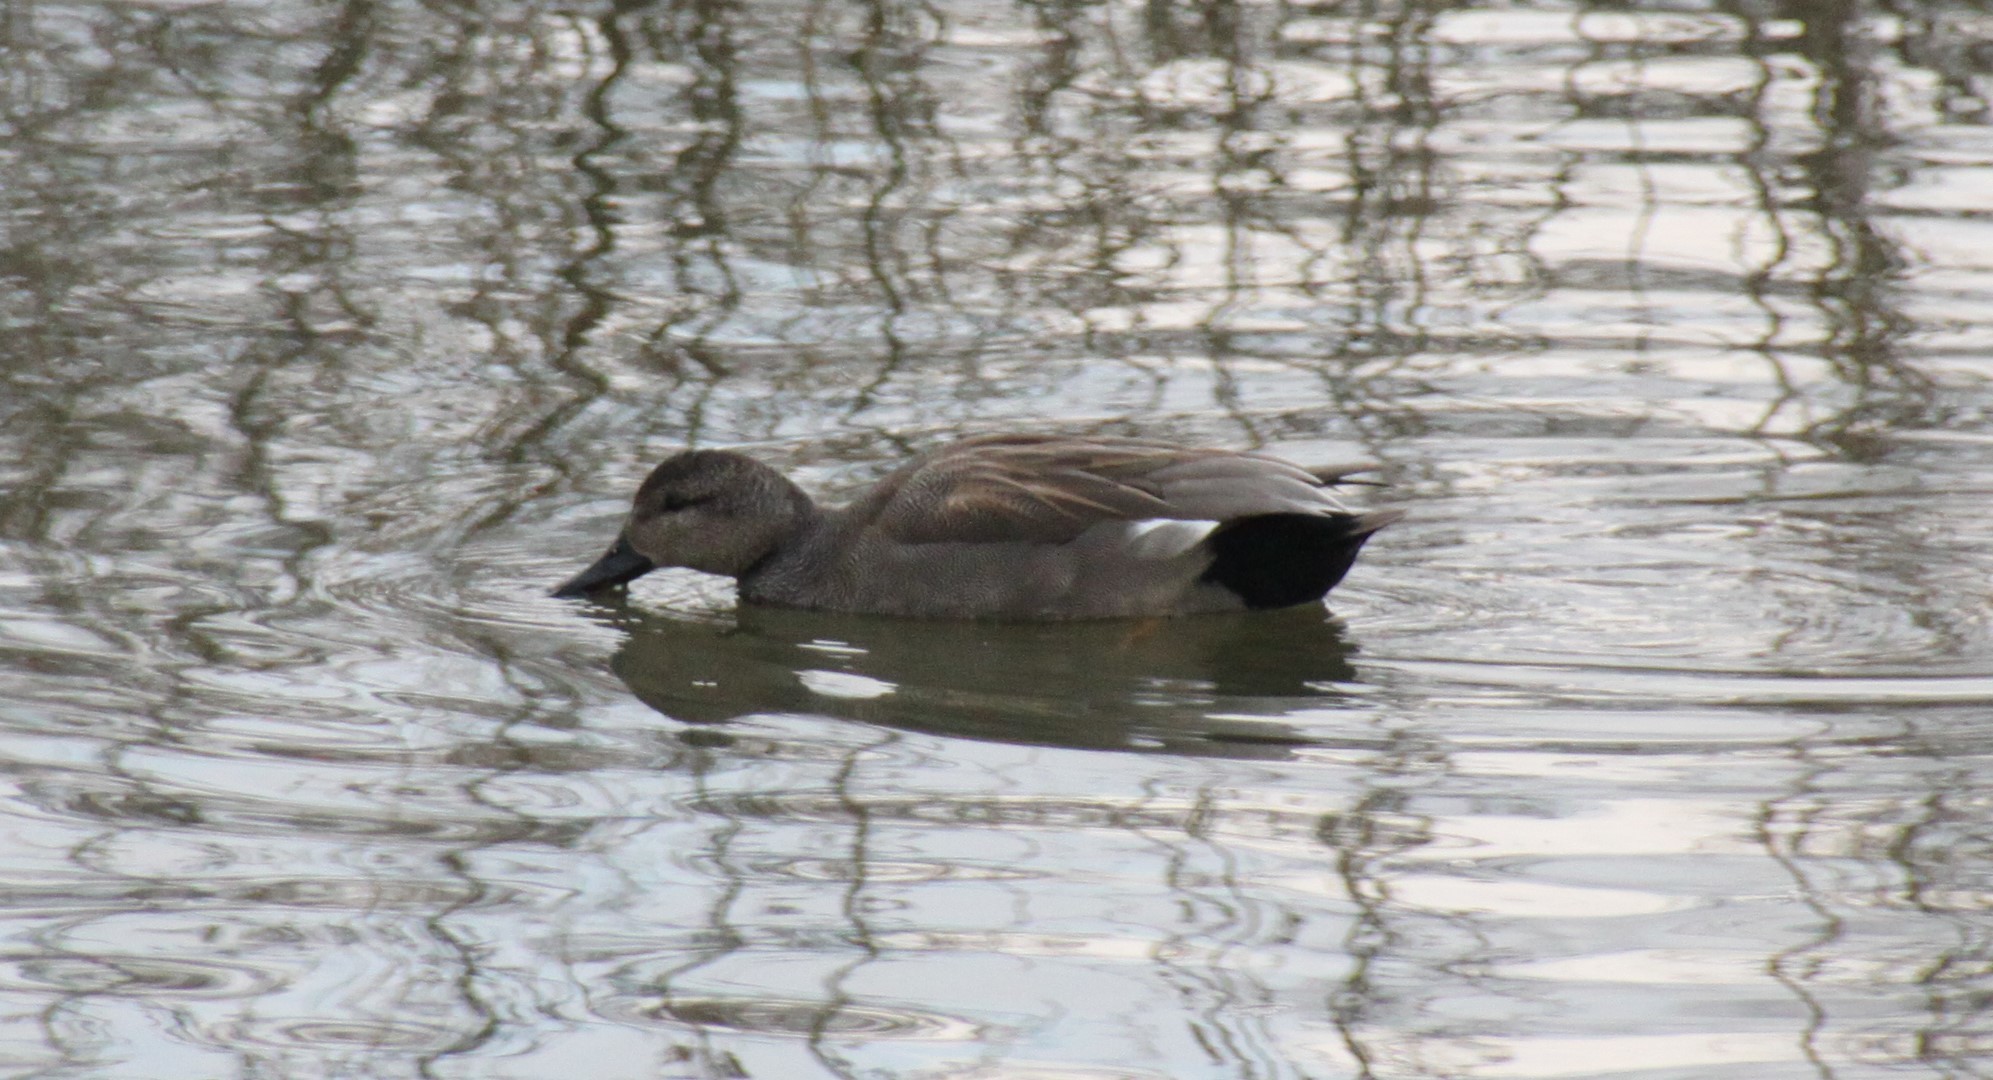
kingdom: Animalia
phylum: Chordata
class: Aves
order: Anseriformes
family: Anatidae
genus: Mareca
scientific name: Mareca strepera
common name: Gadwall
